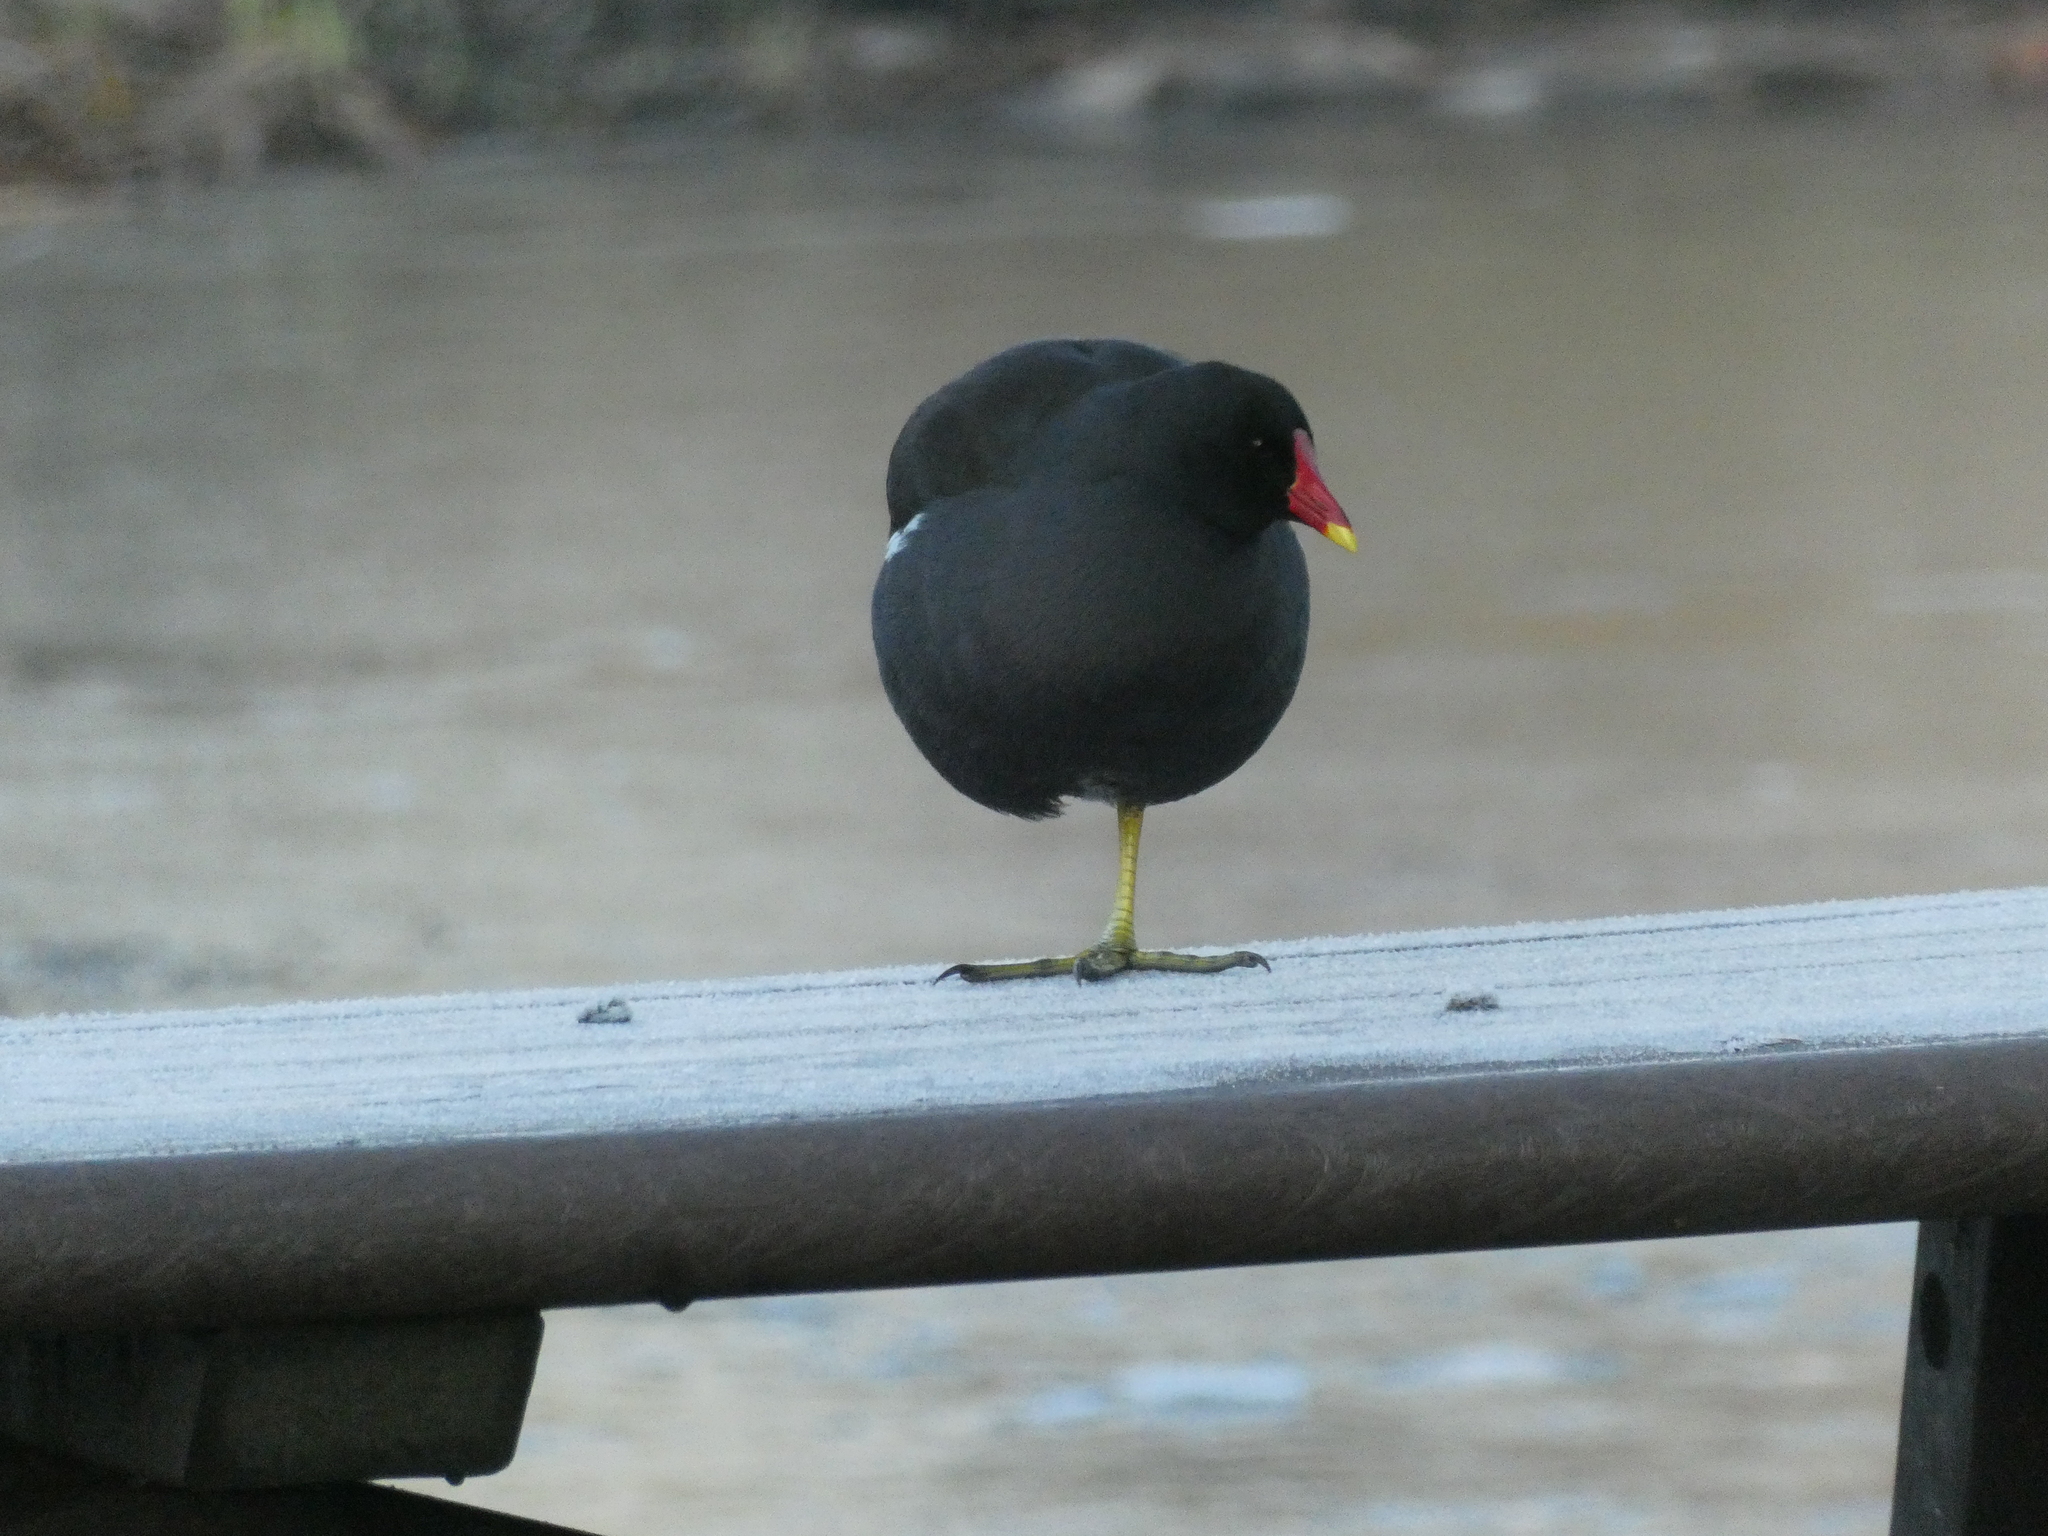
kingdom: Animalia
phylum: Chordata
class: Aves
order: Gruiformes
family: Rallidae
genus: Gallinula
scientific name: Gallinula chloropus
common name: Common moorhen
